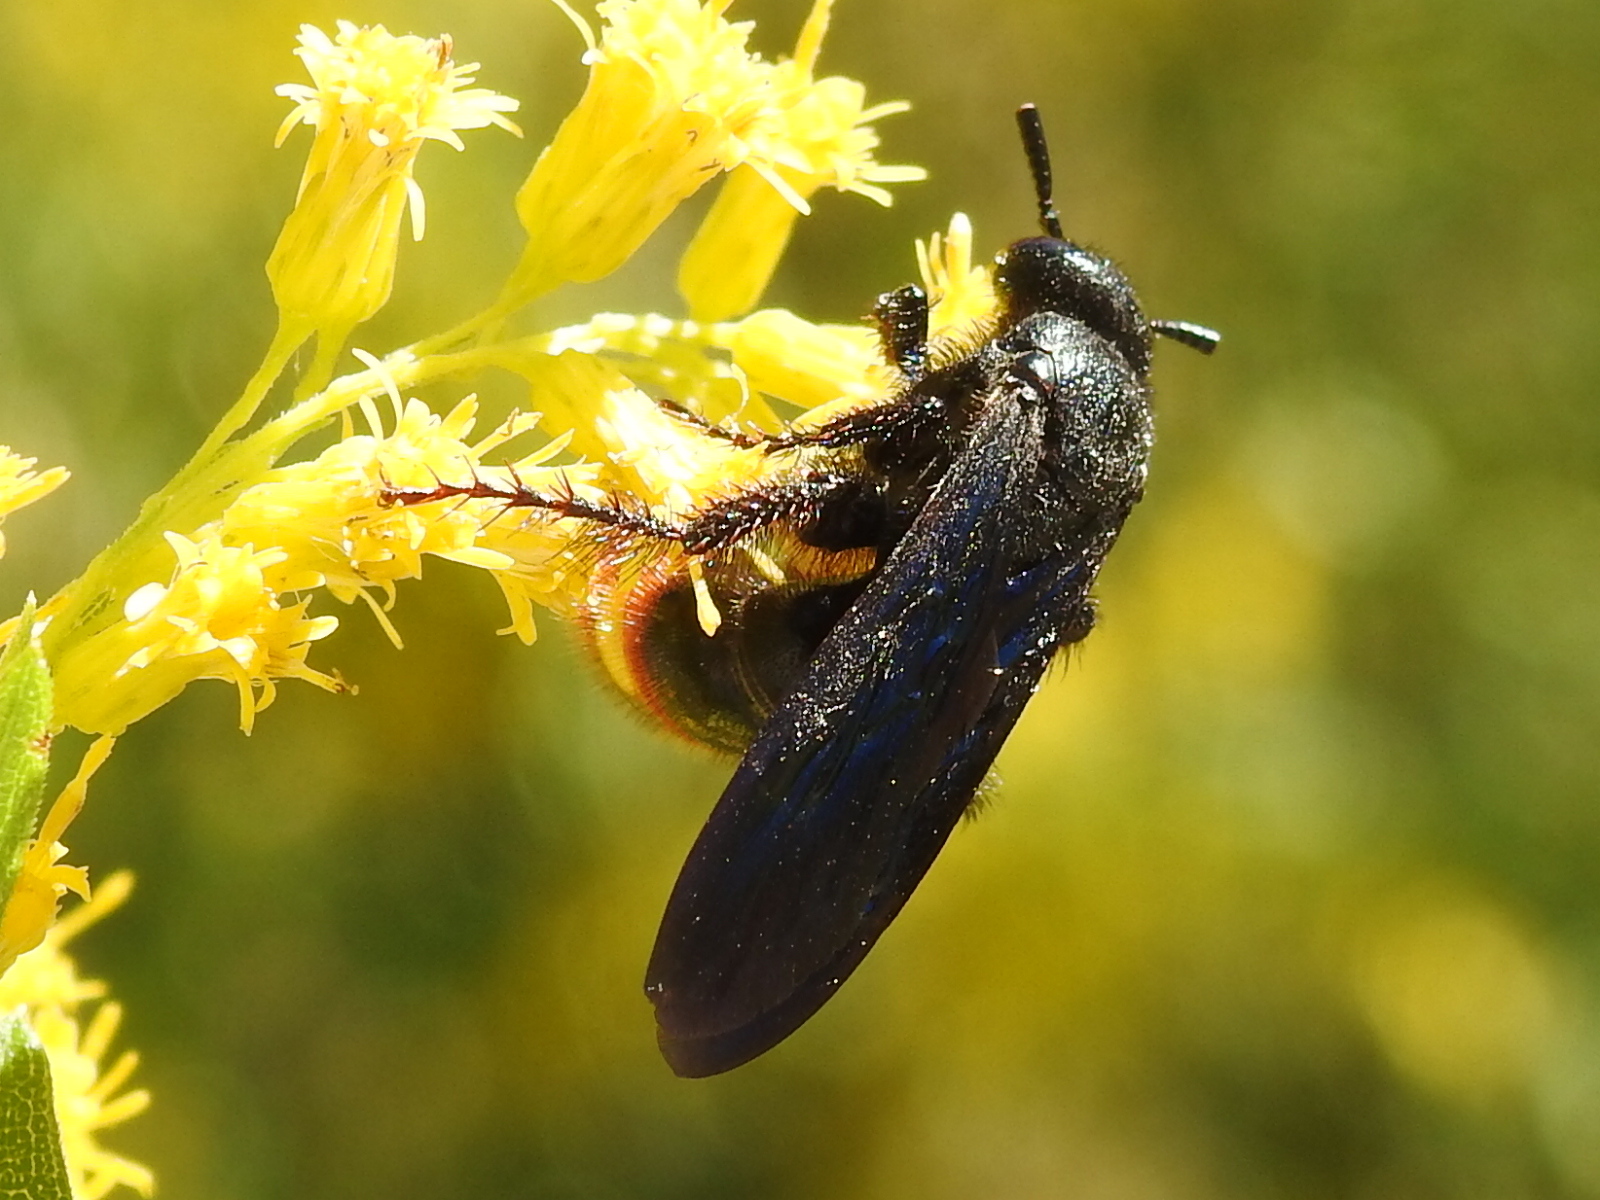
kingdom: Animalia
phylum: Arthropoda
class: Insecta
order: Hymenoptera
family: Scoliidae
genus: Scolia
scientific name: Scolia dubia
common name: Blue-winged scoliid wasp
